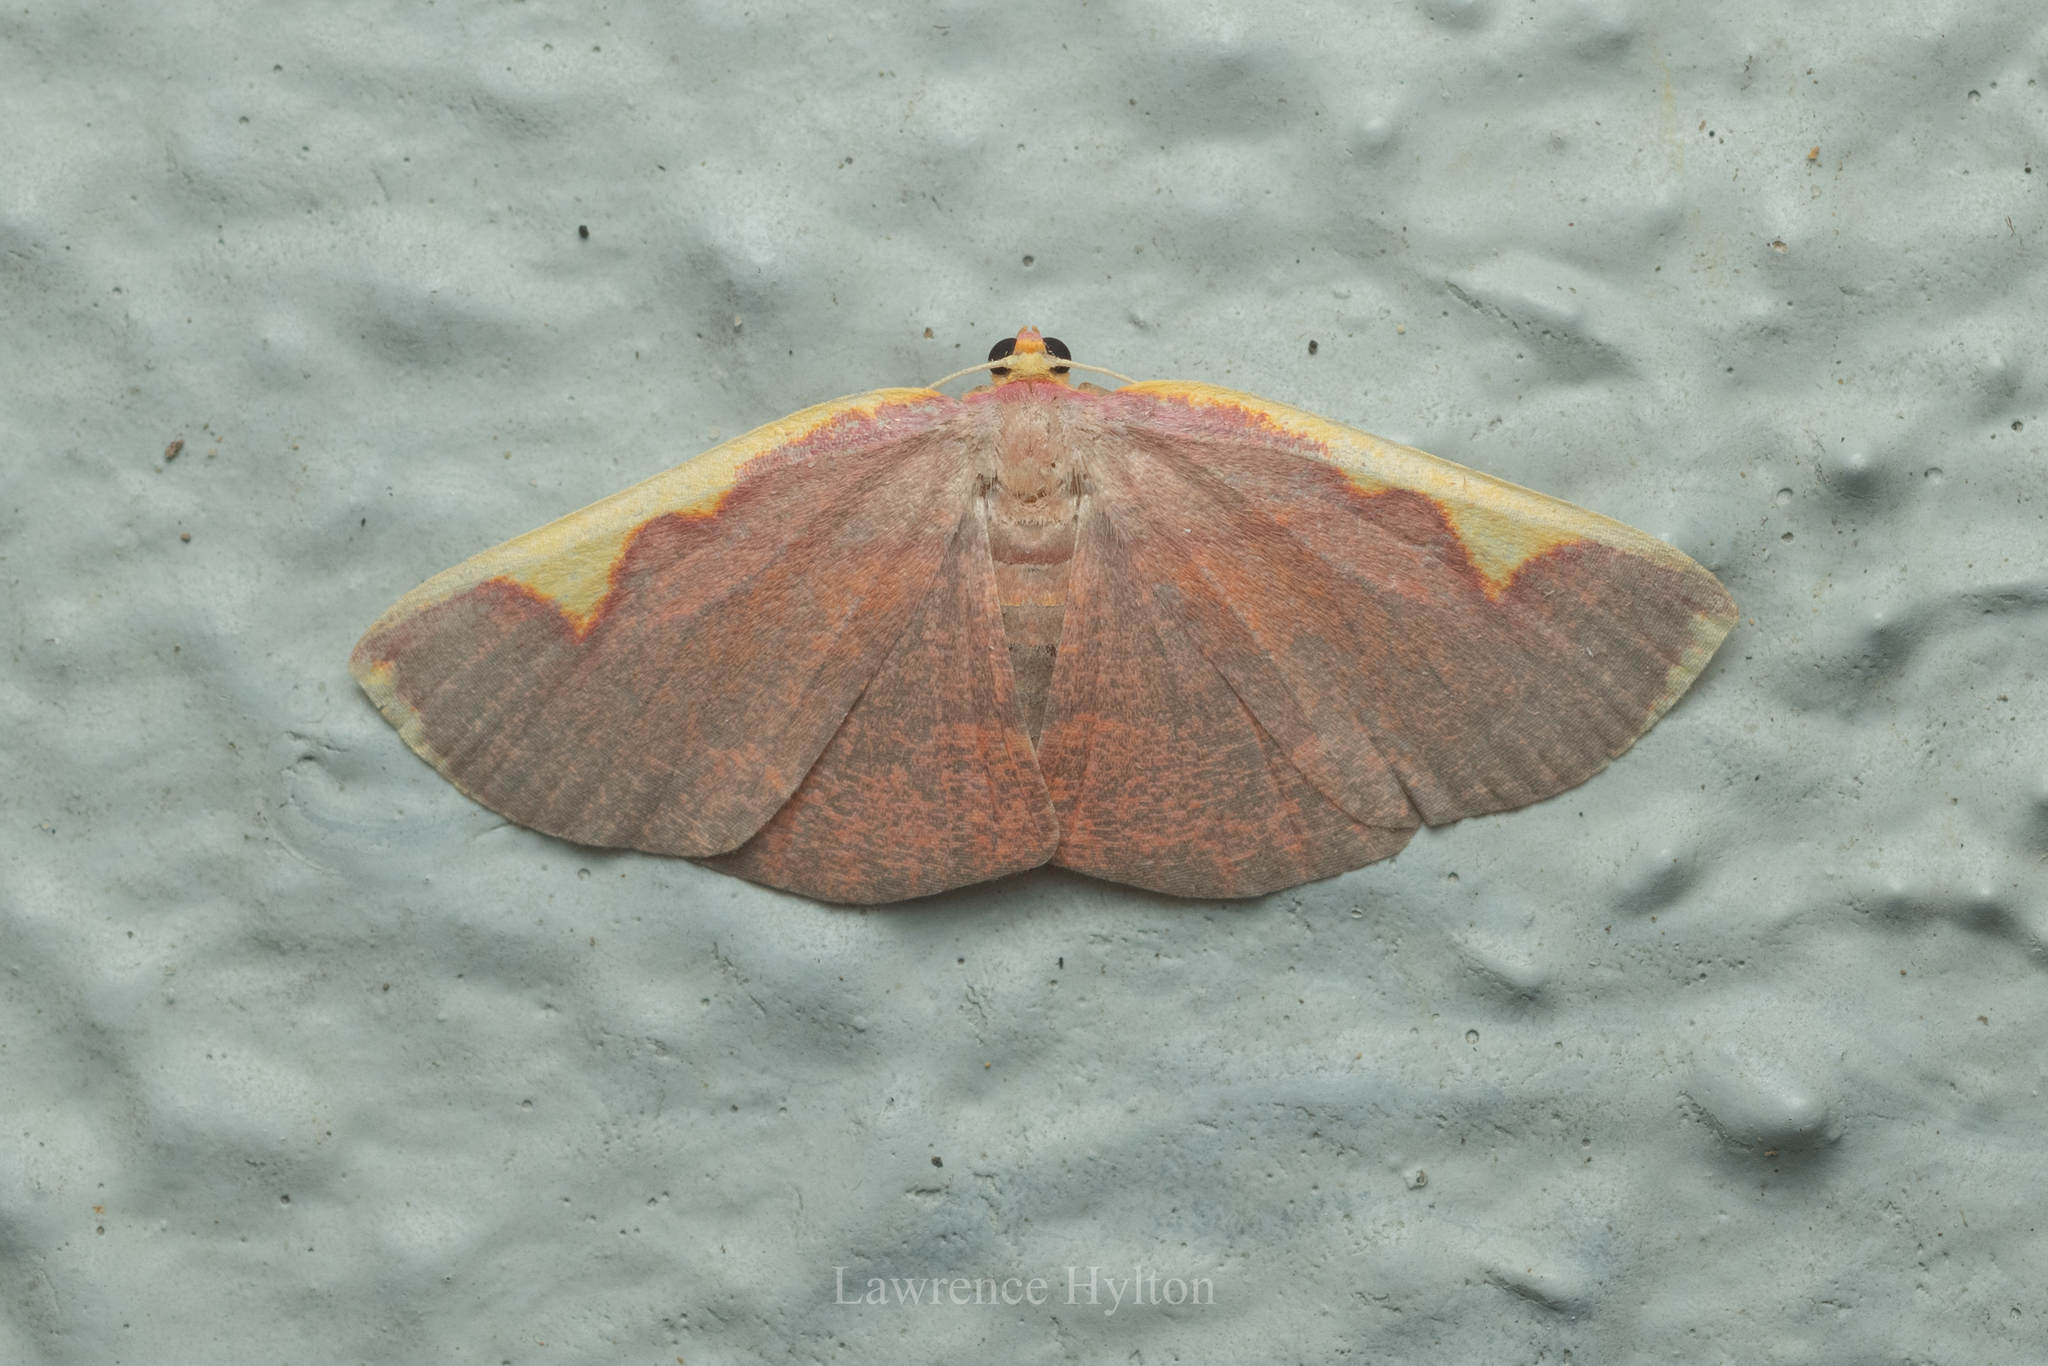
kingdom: Animalia
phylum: Arthropoda
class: Insecta
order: Lepidoptera
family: Geometridae
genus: Nothomiza
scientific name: Nothomiza flavicosta
